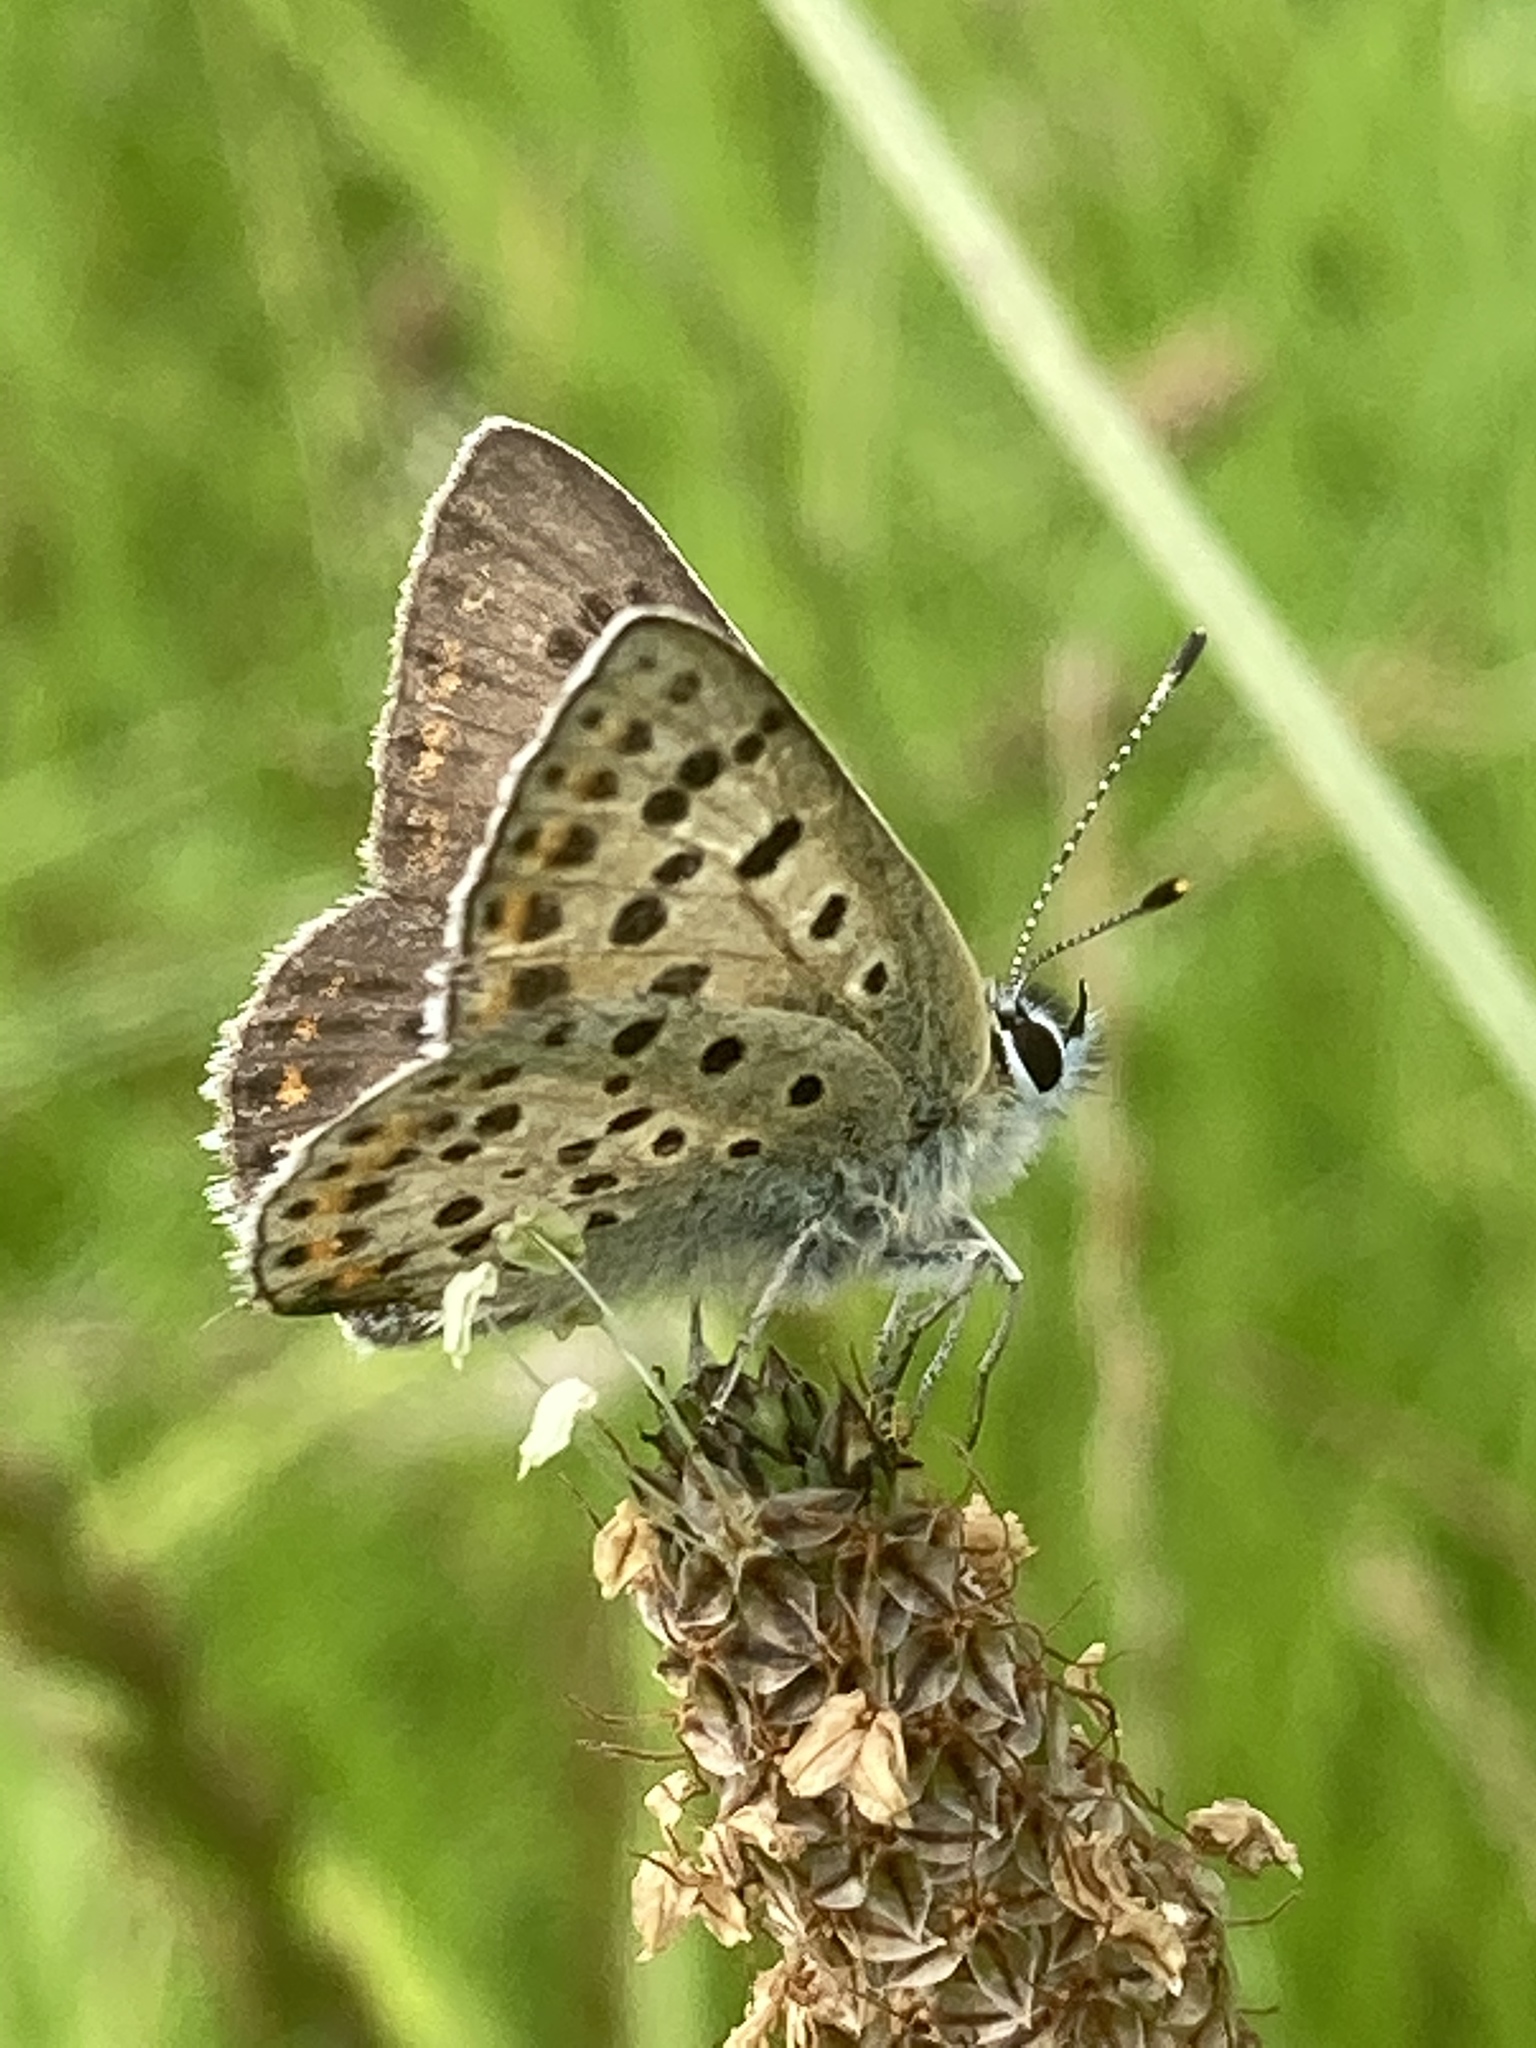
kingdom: Animalia
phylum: Arthropoda
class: Insecta
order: Lepidoptera
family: Lycaenidae
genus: Loweia
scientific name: Loweia tityrus
